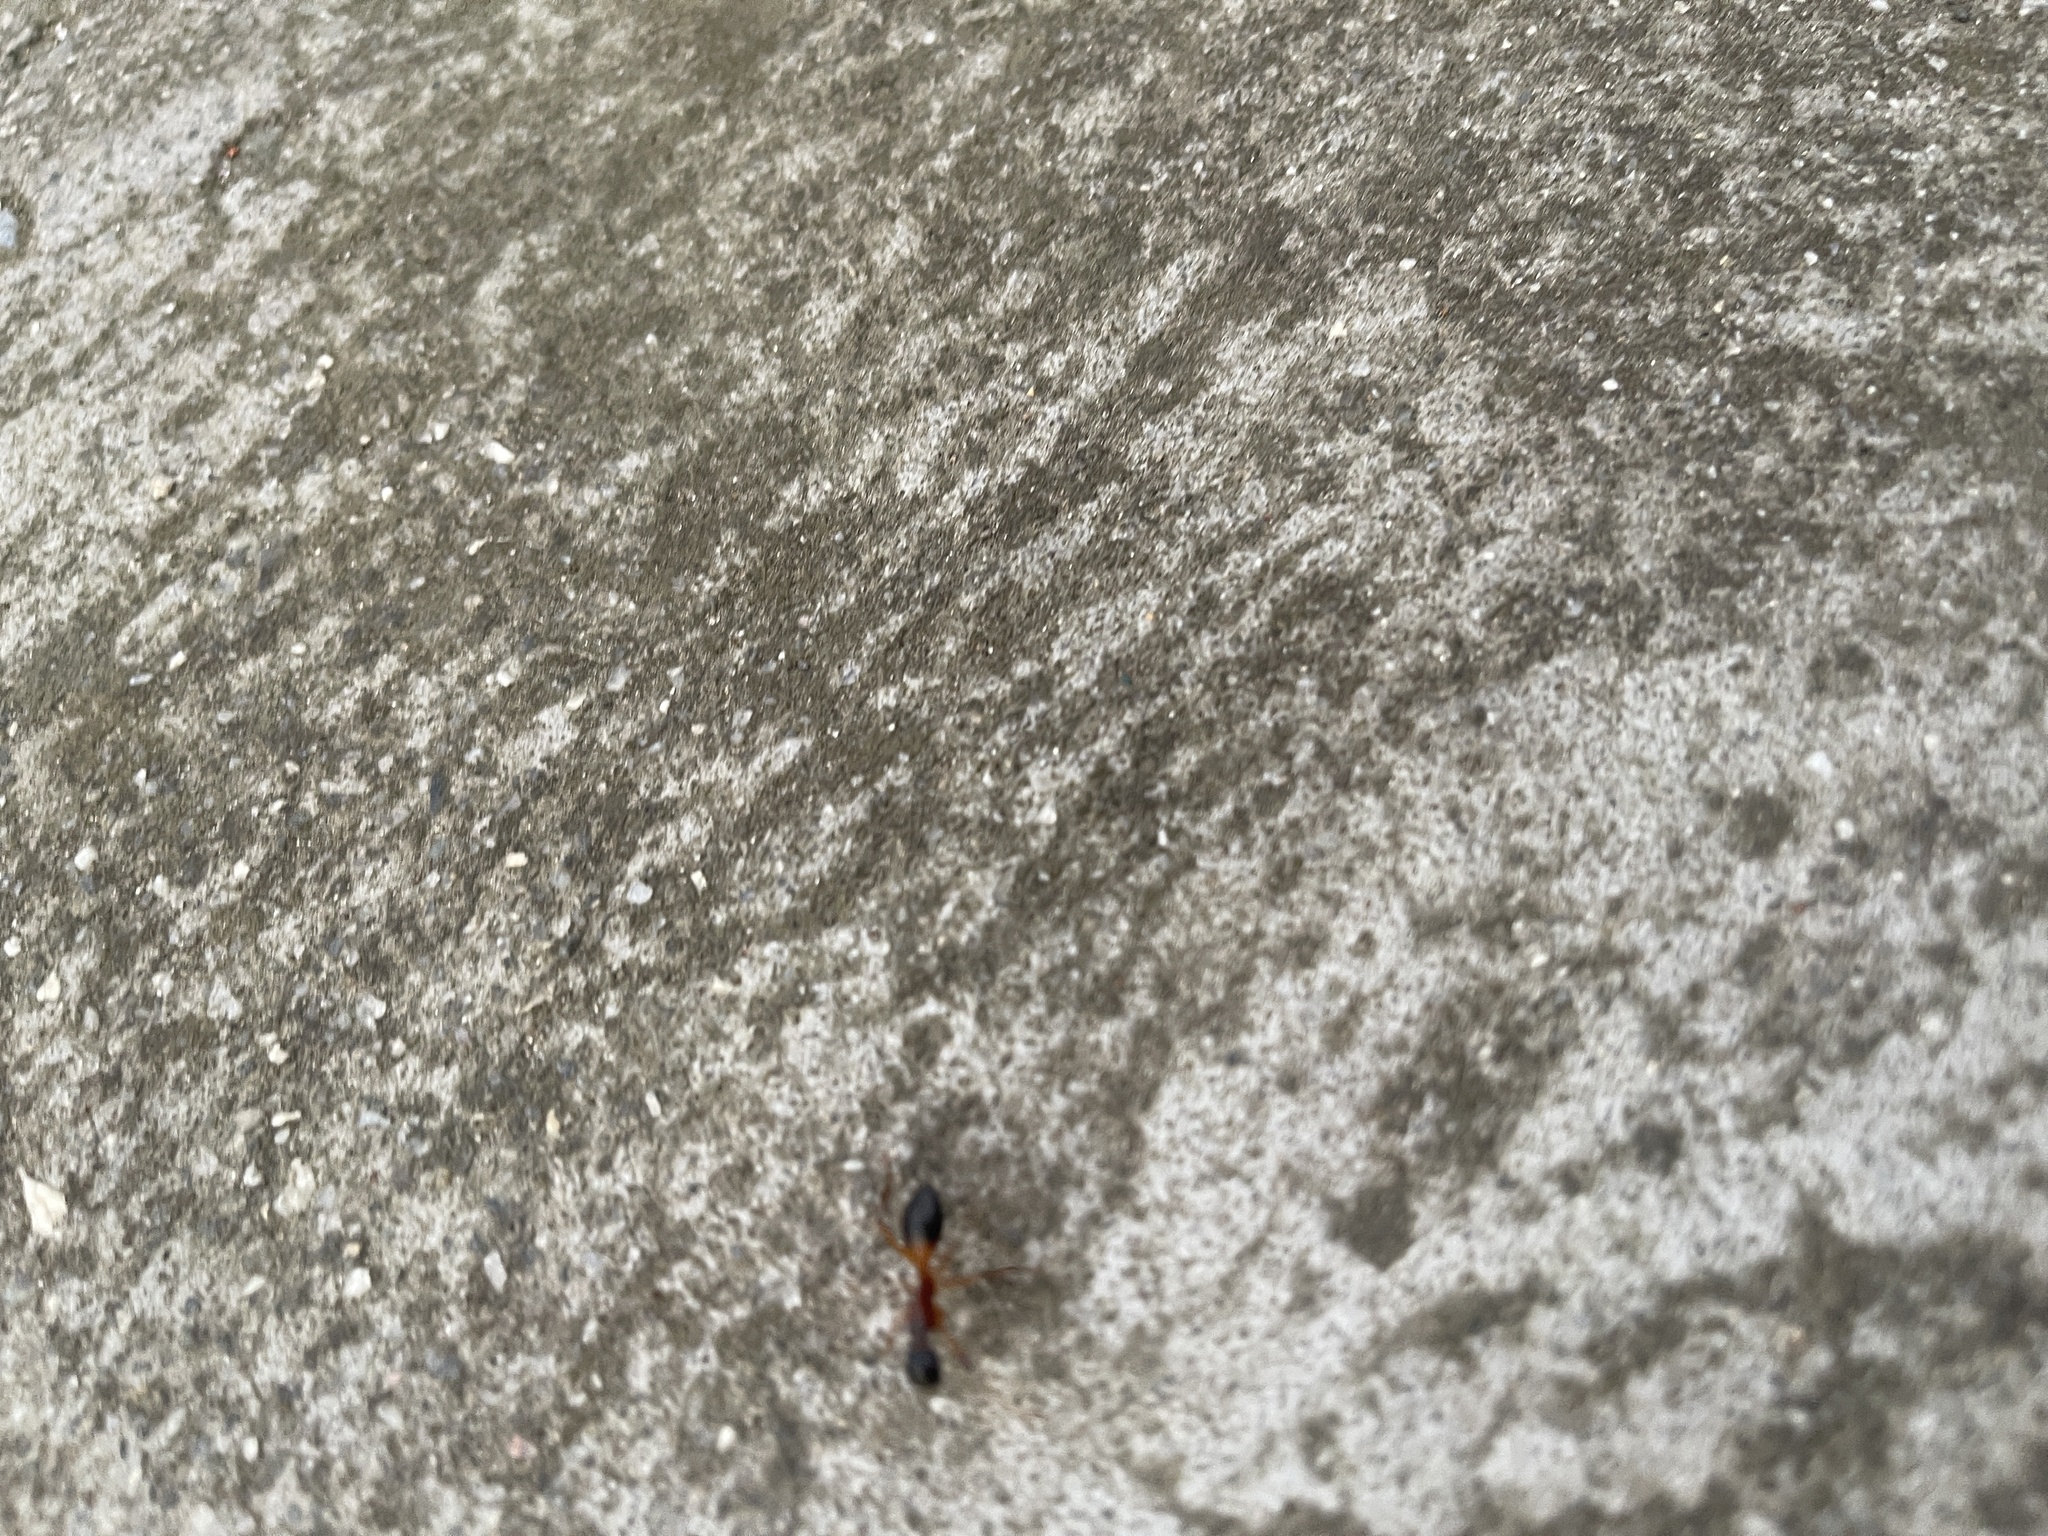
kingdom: Animalia
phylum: Arthropoda
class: Insecta
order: Hymenoptera
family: Formicidae
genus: Camponotus
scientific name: Camponotus consobrinus
